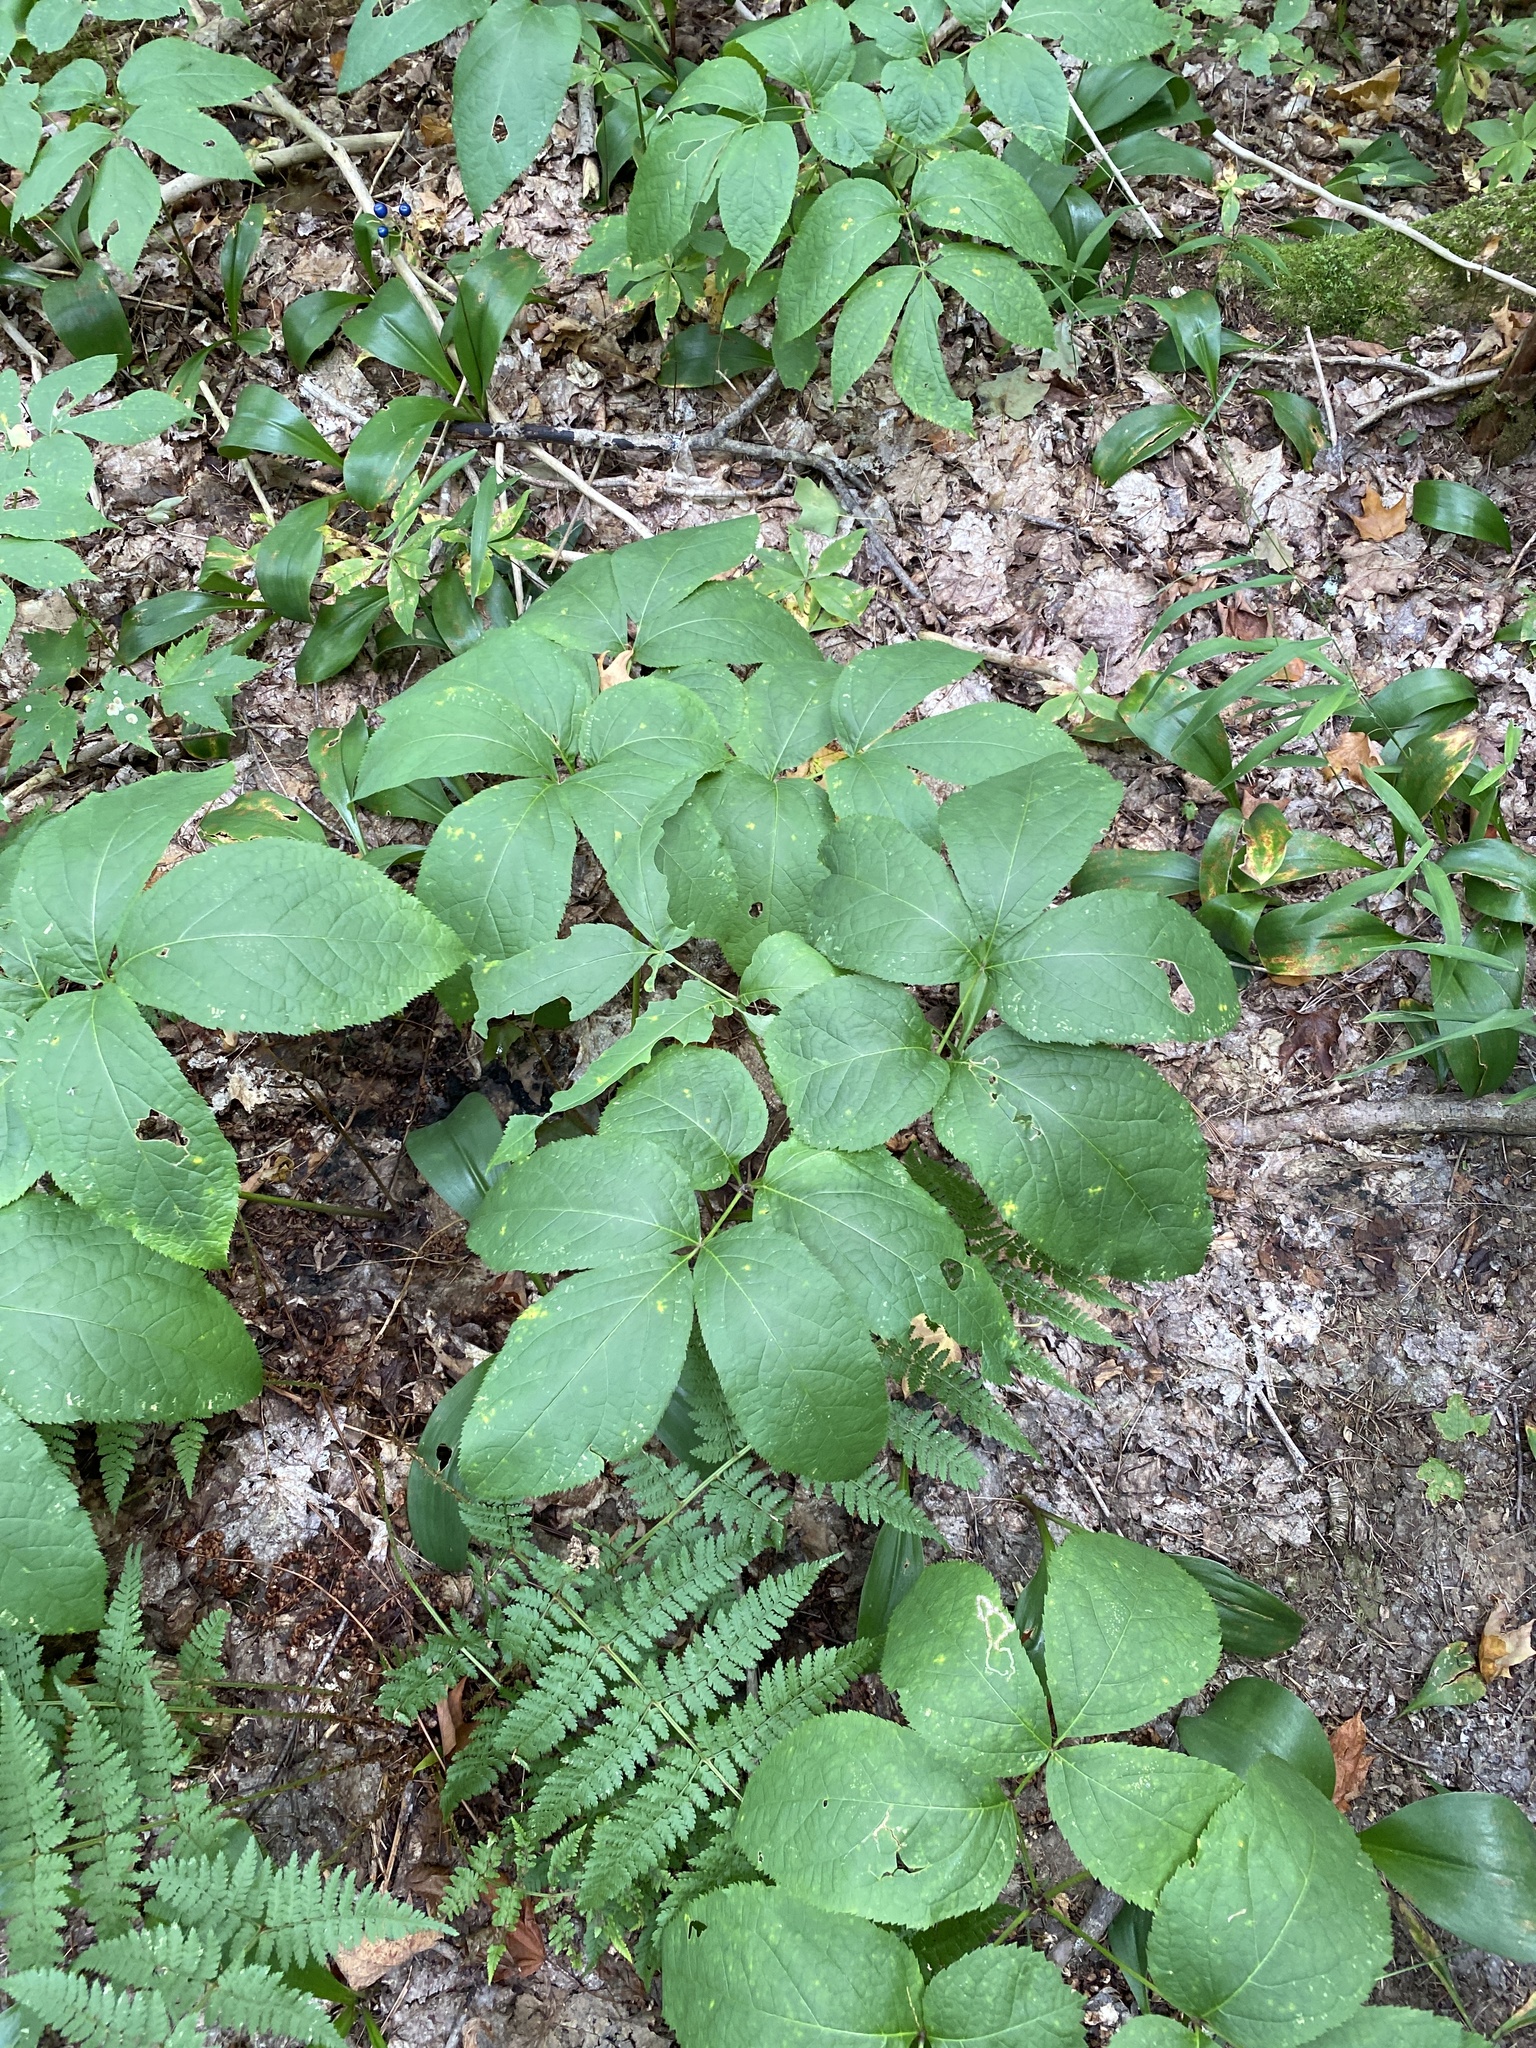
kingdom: Plantae
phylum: Tracheophyta
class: Magnoliopsida
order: Apiales
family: Araliaceae
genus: Aralia
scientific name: Aralia nudicaulis
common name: Wild sarsaparilla
